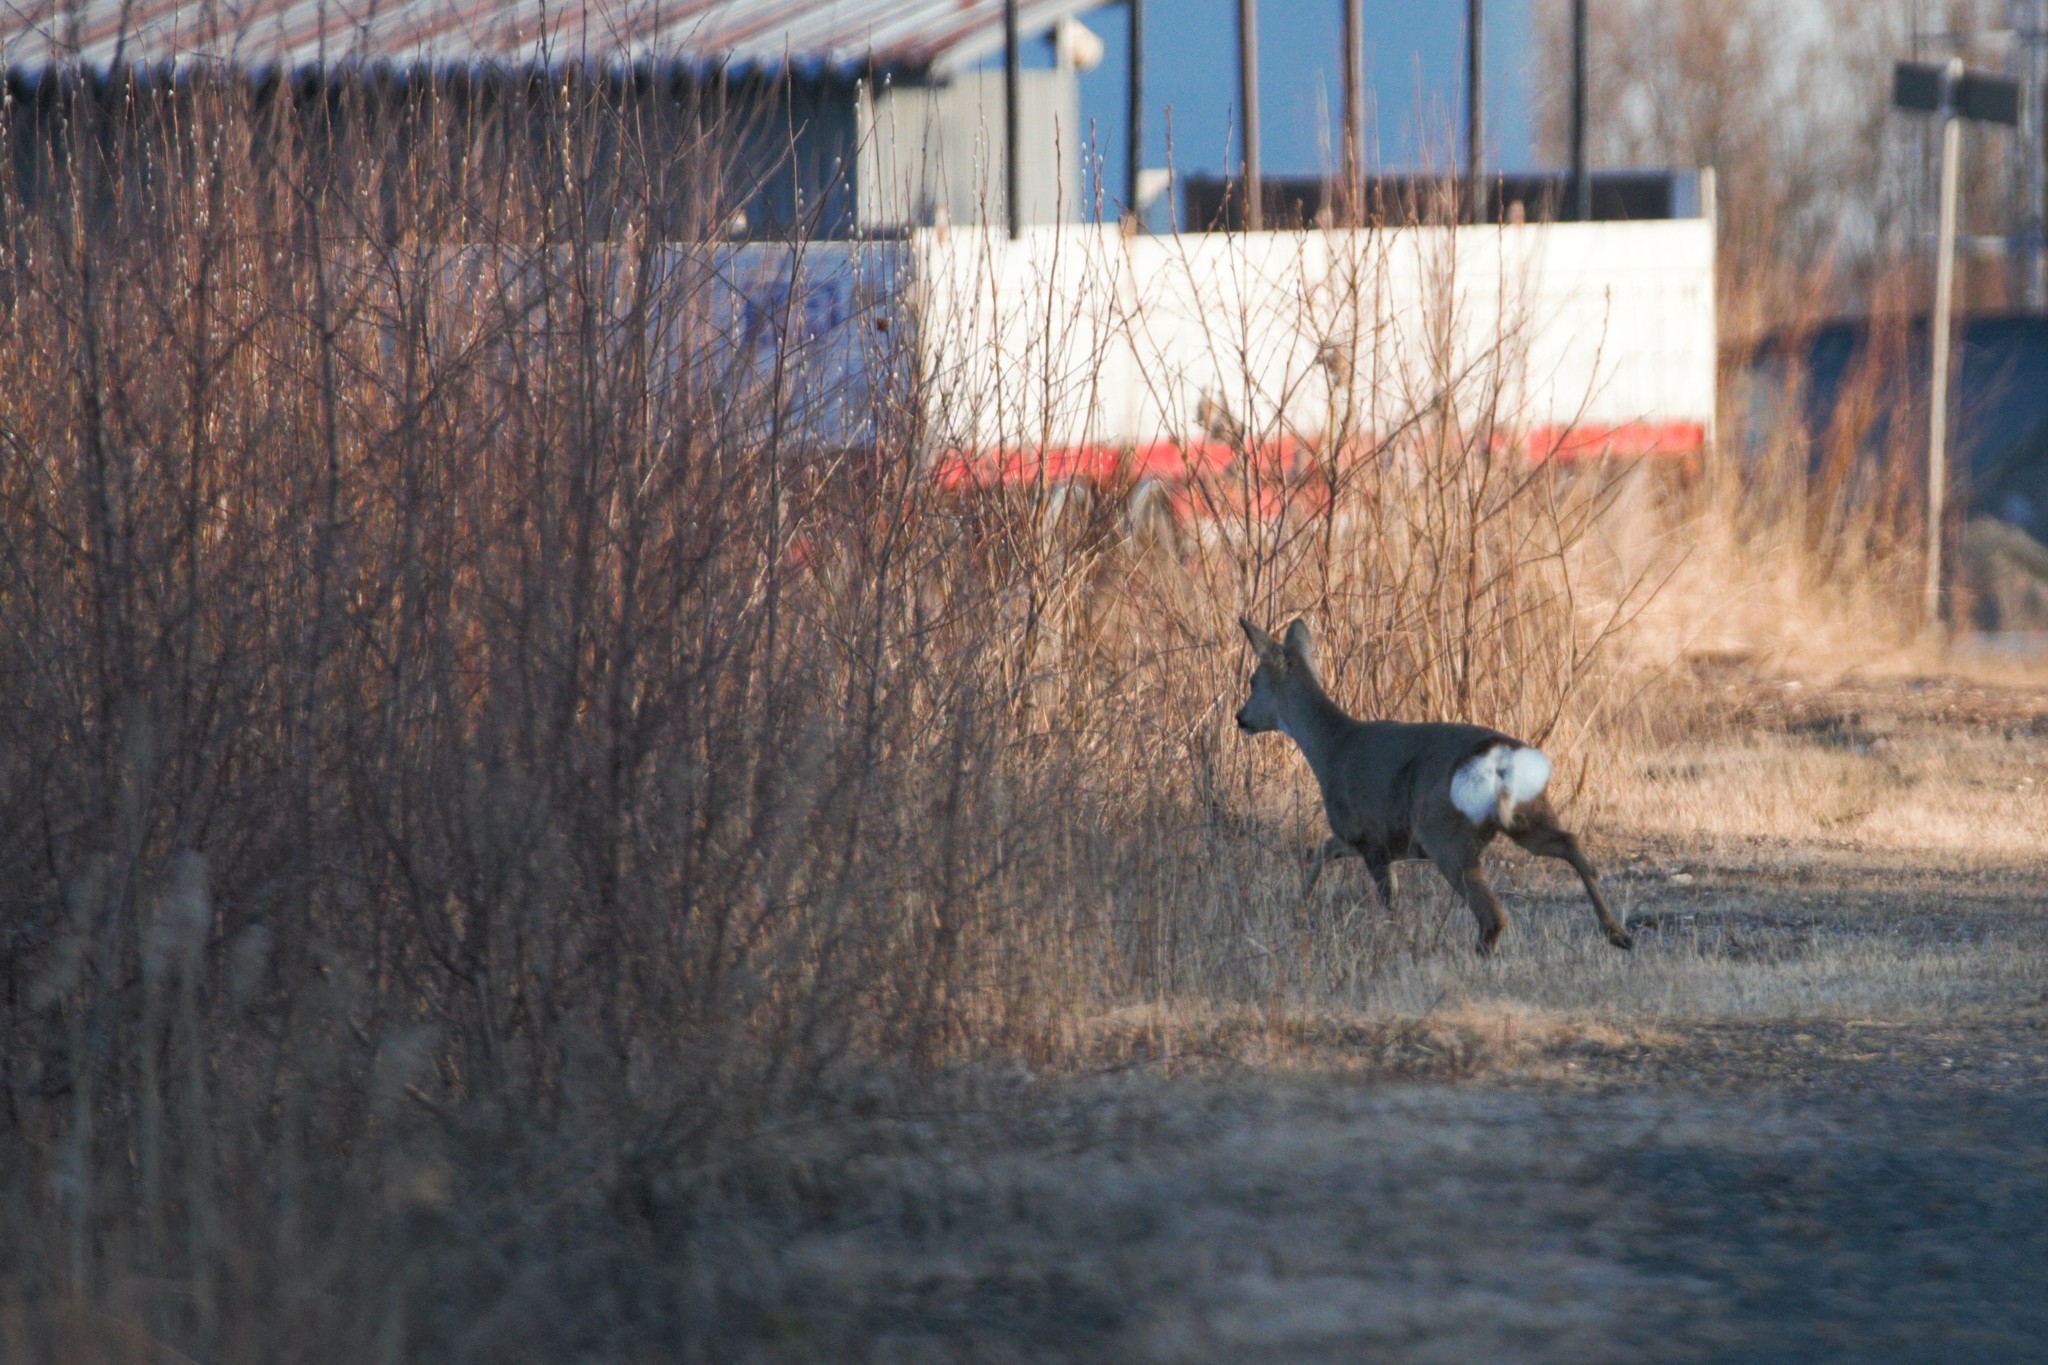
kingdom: Animalia
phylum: Chordata
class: Mammalia
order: Artiodactyla
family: Cervidae
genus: Capreolus
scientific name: Capreolus capreolus
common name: Western roe deer
